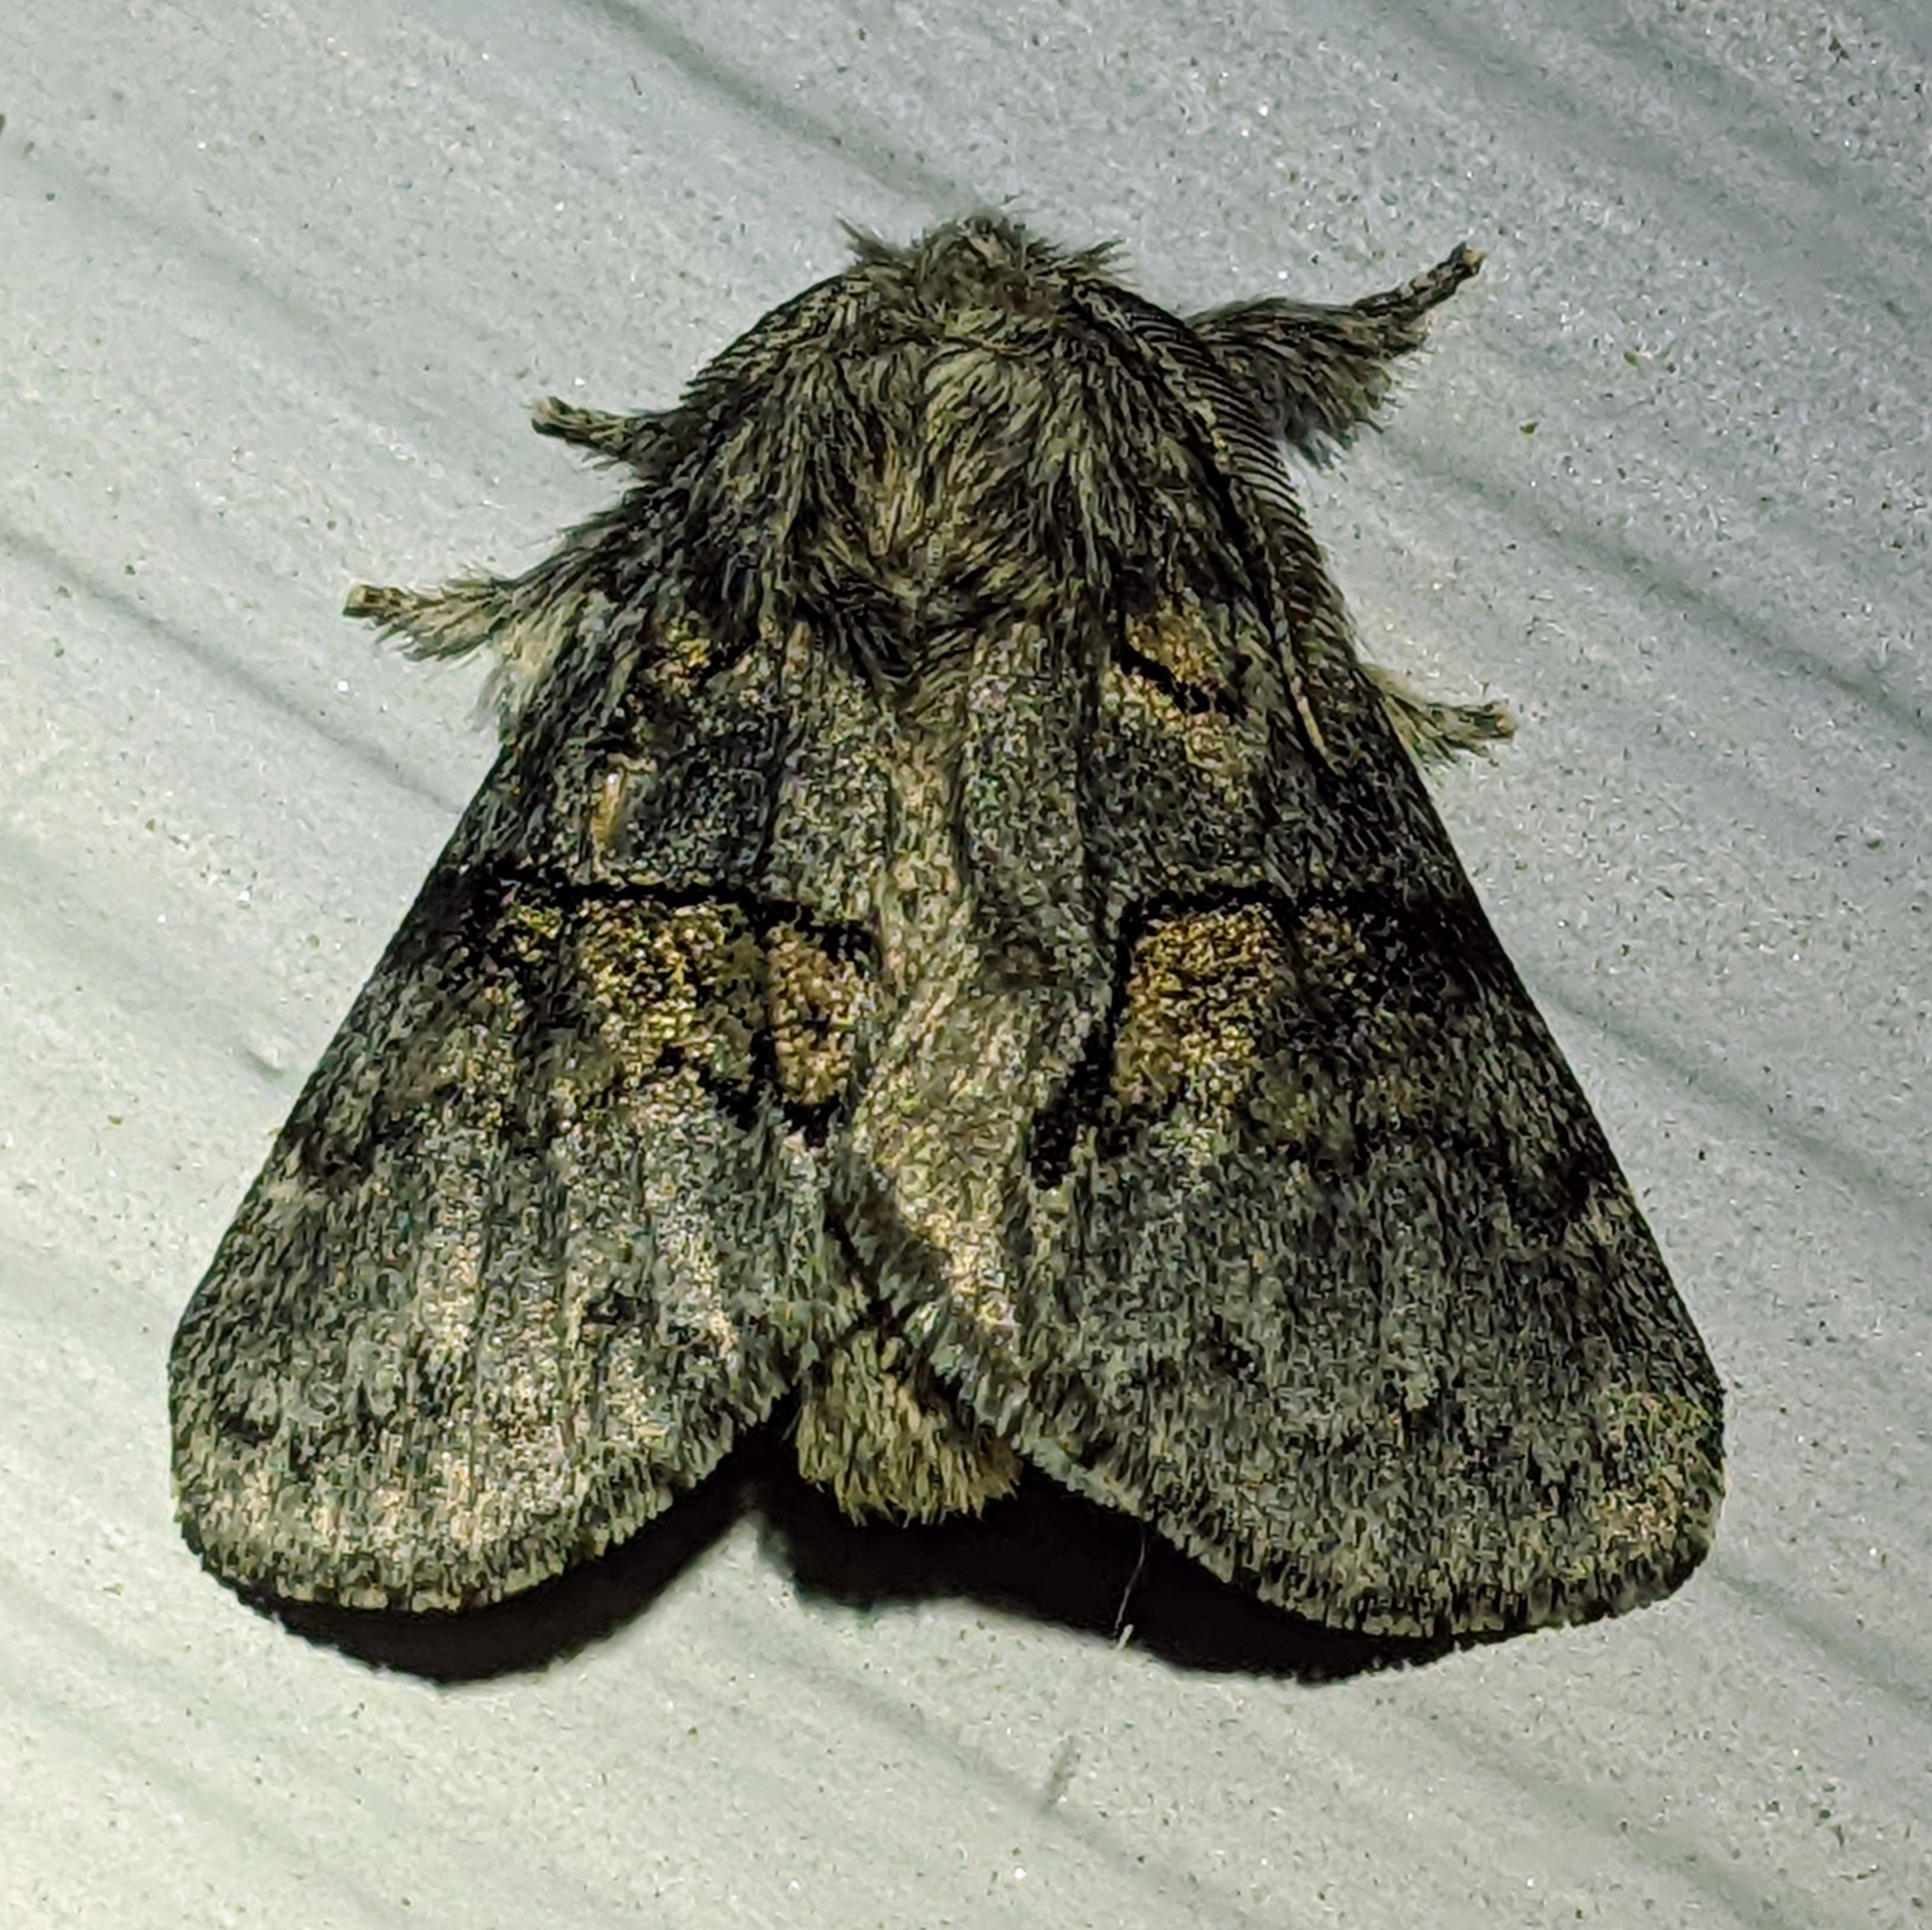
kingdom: Animalia
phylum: Arthropoda
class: Insecta
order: Lepidoptera
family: Notodontidae
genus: Gluphisia
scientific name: Gluphisia septentrionis
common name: Common gluphisia
